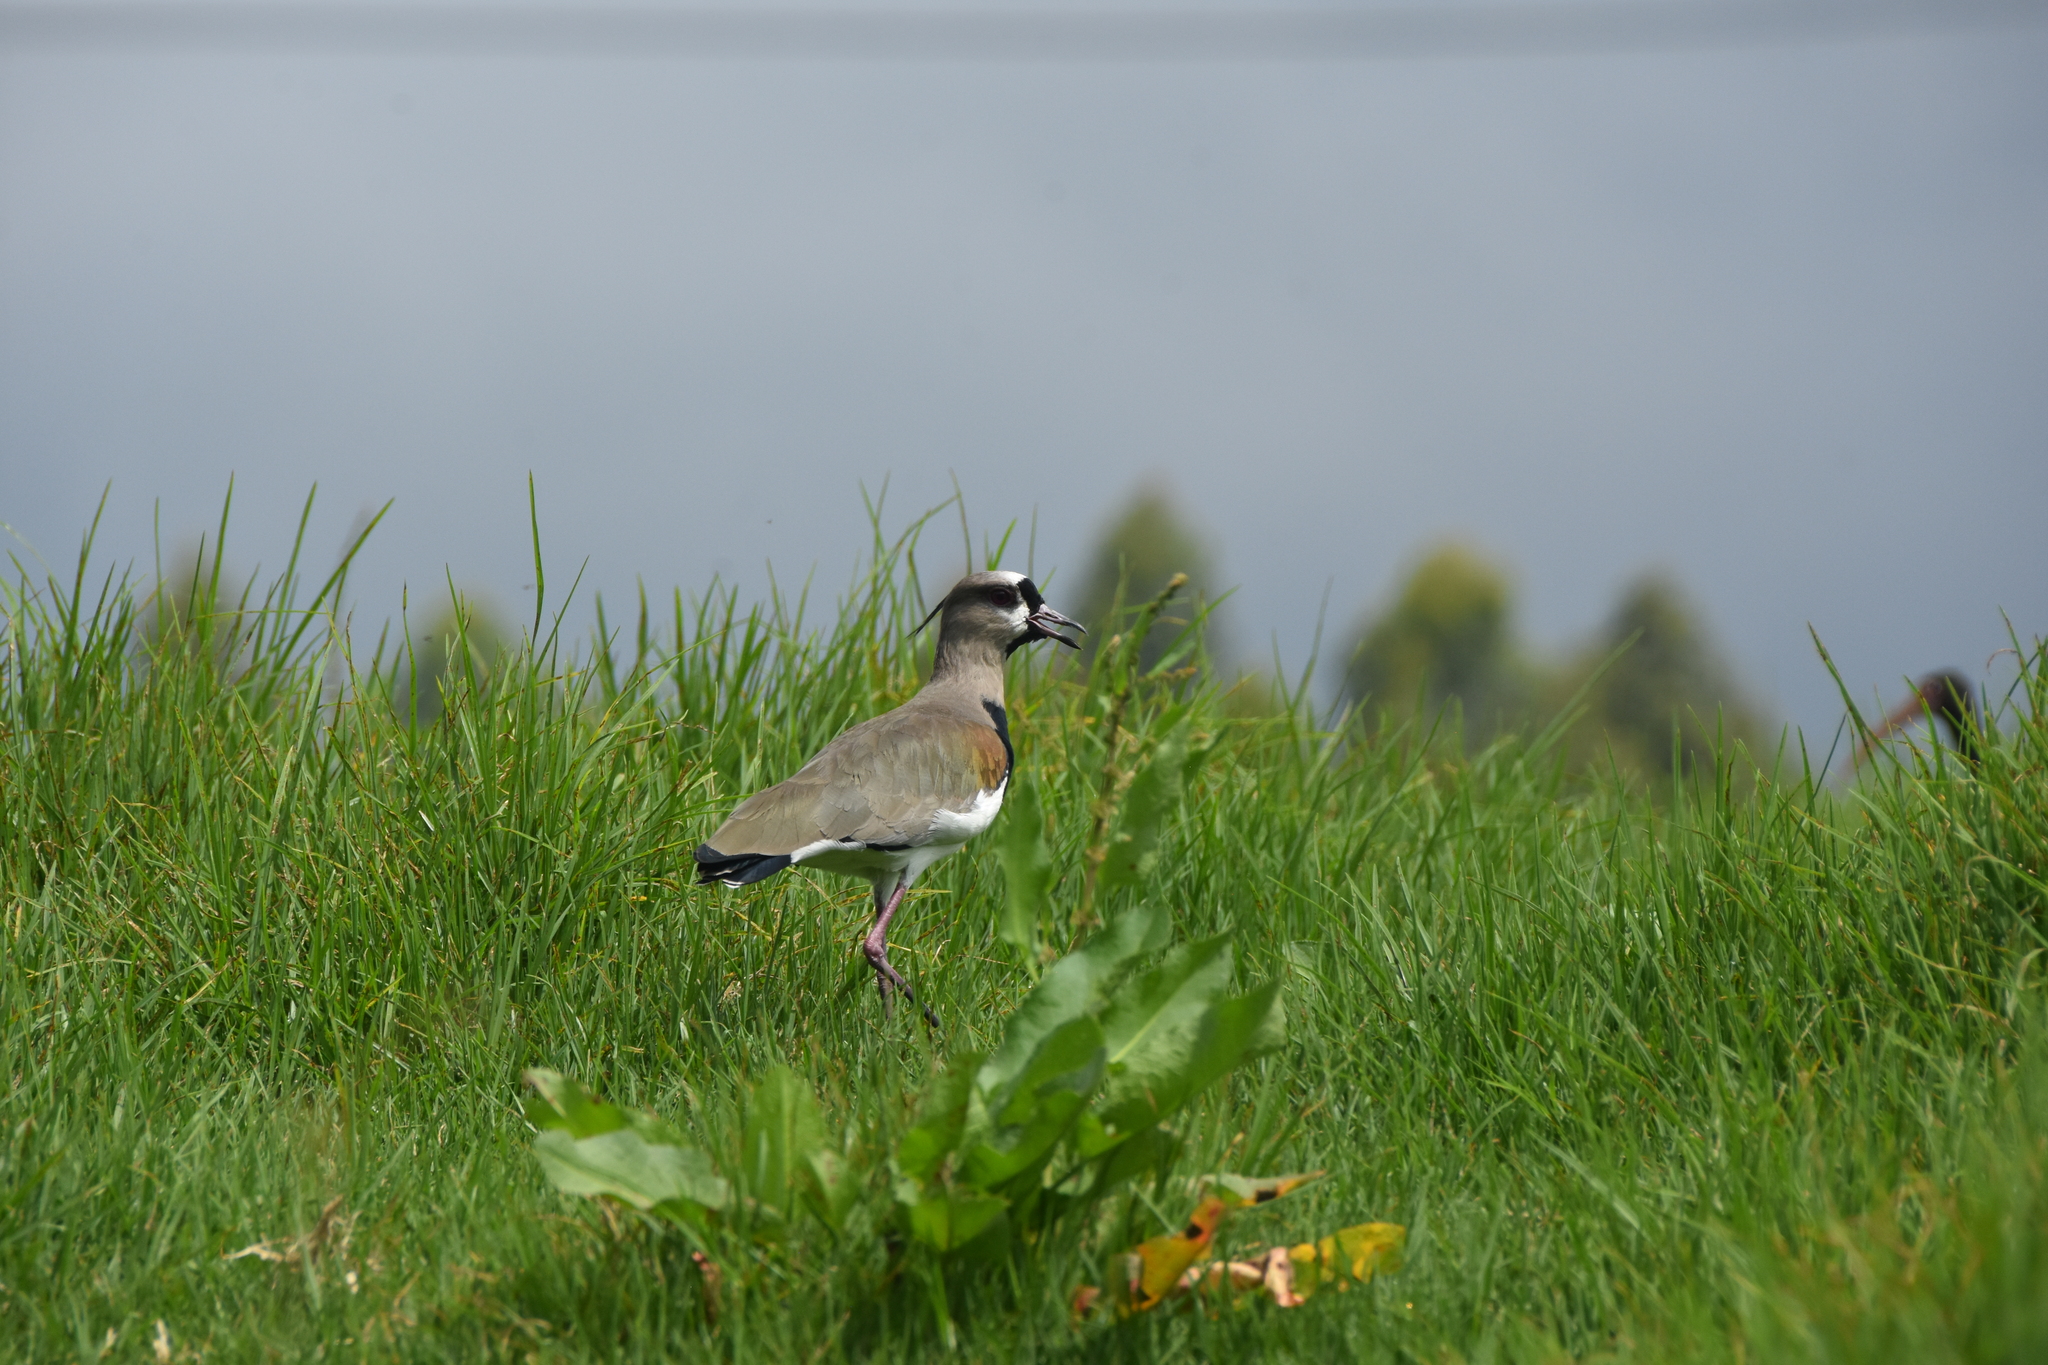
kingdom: Animalia
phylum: Chordata
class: Aves
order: Charadriiformes
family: Charadriidae
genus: Vanellus
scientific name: Vanellus chilensis
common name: Southern lapwing
